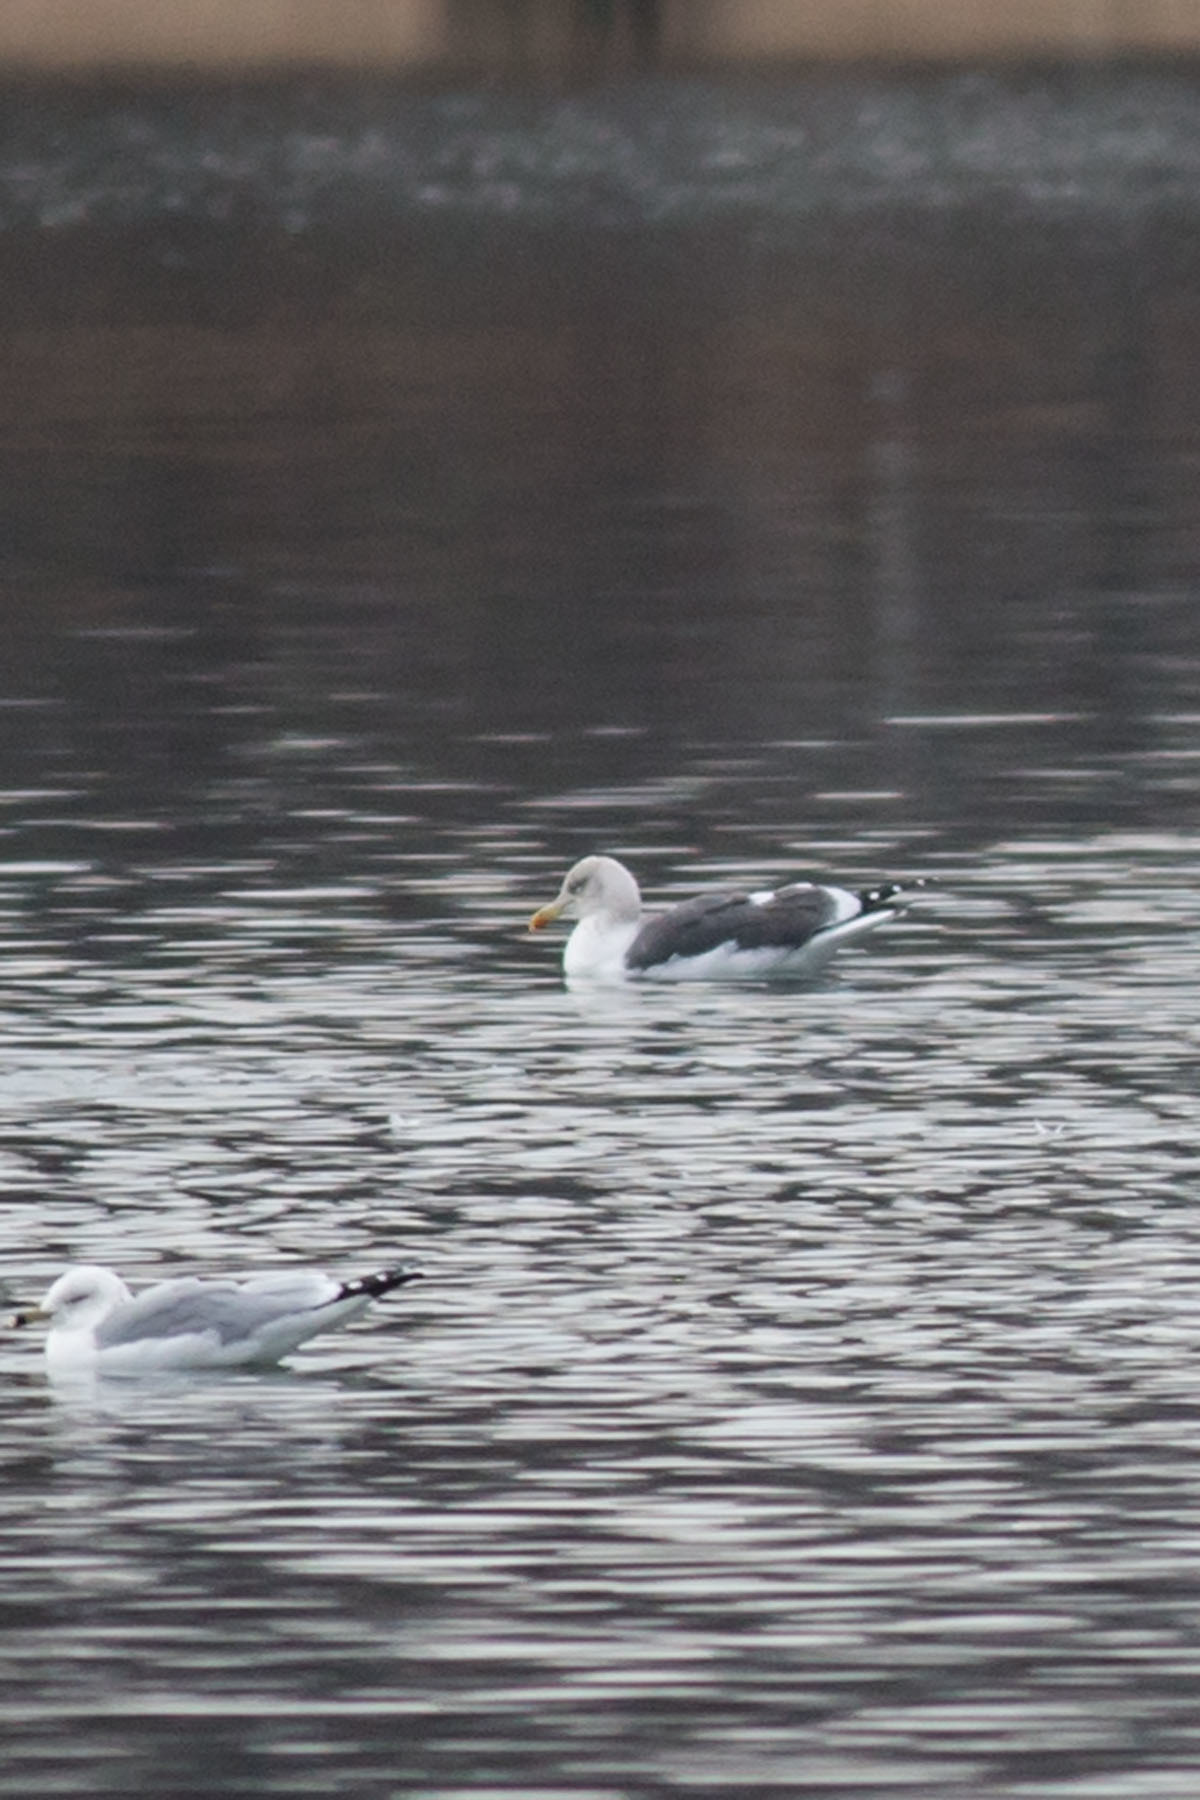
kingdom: Animalia
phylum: Chordata
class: Aves
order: Charadriiformes
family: Laridae
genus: Larus
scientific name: Larus fuscus
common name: Lesser black-backed gull
